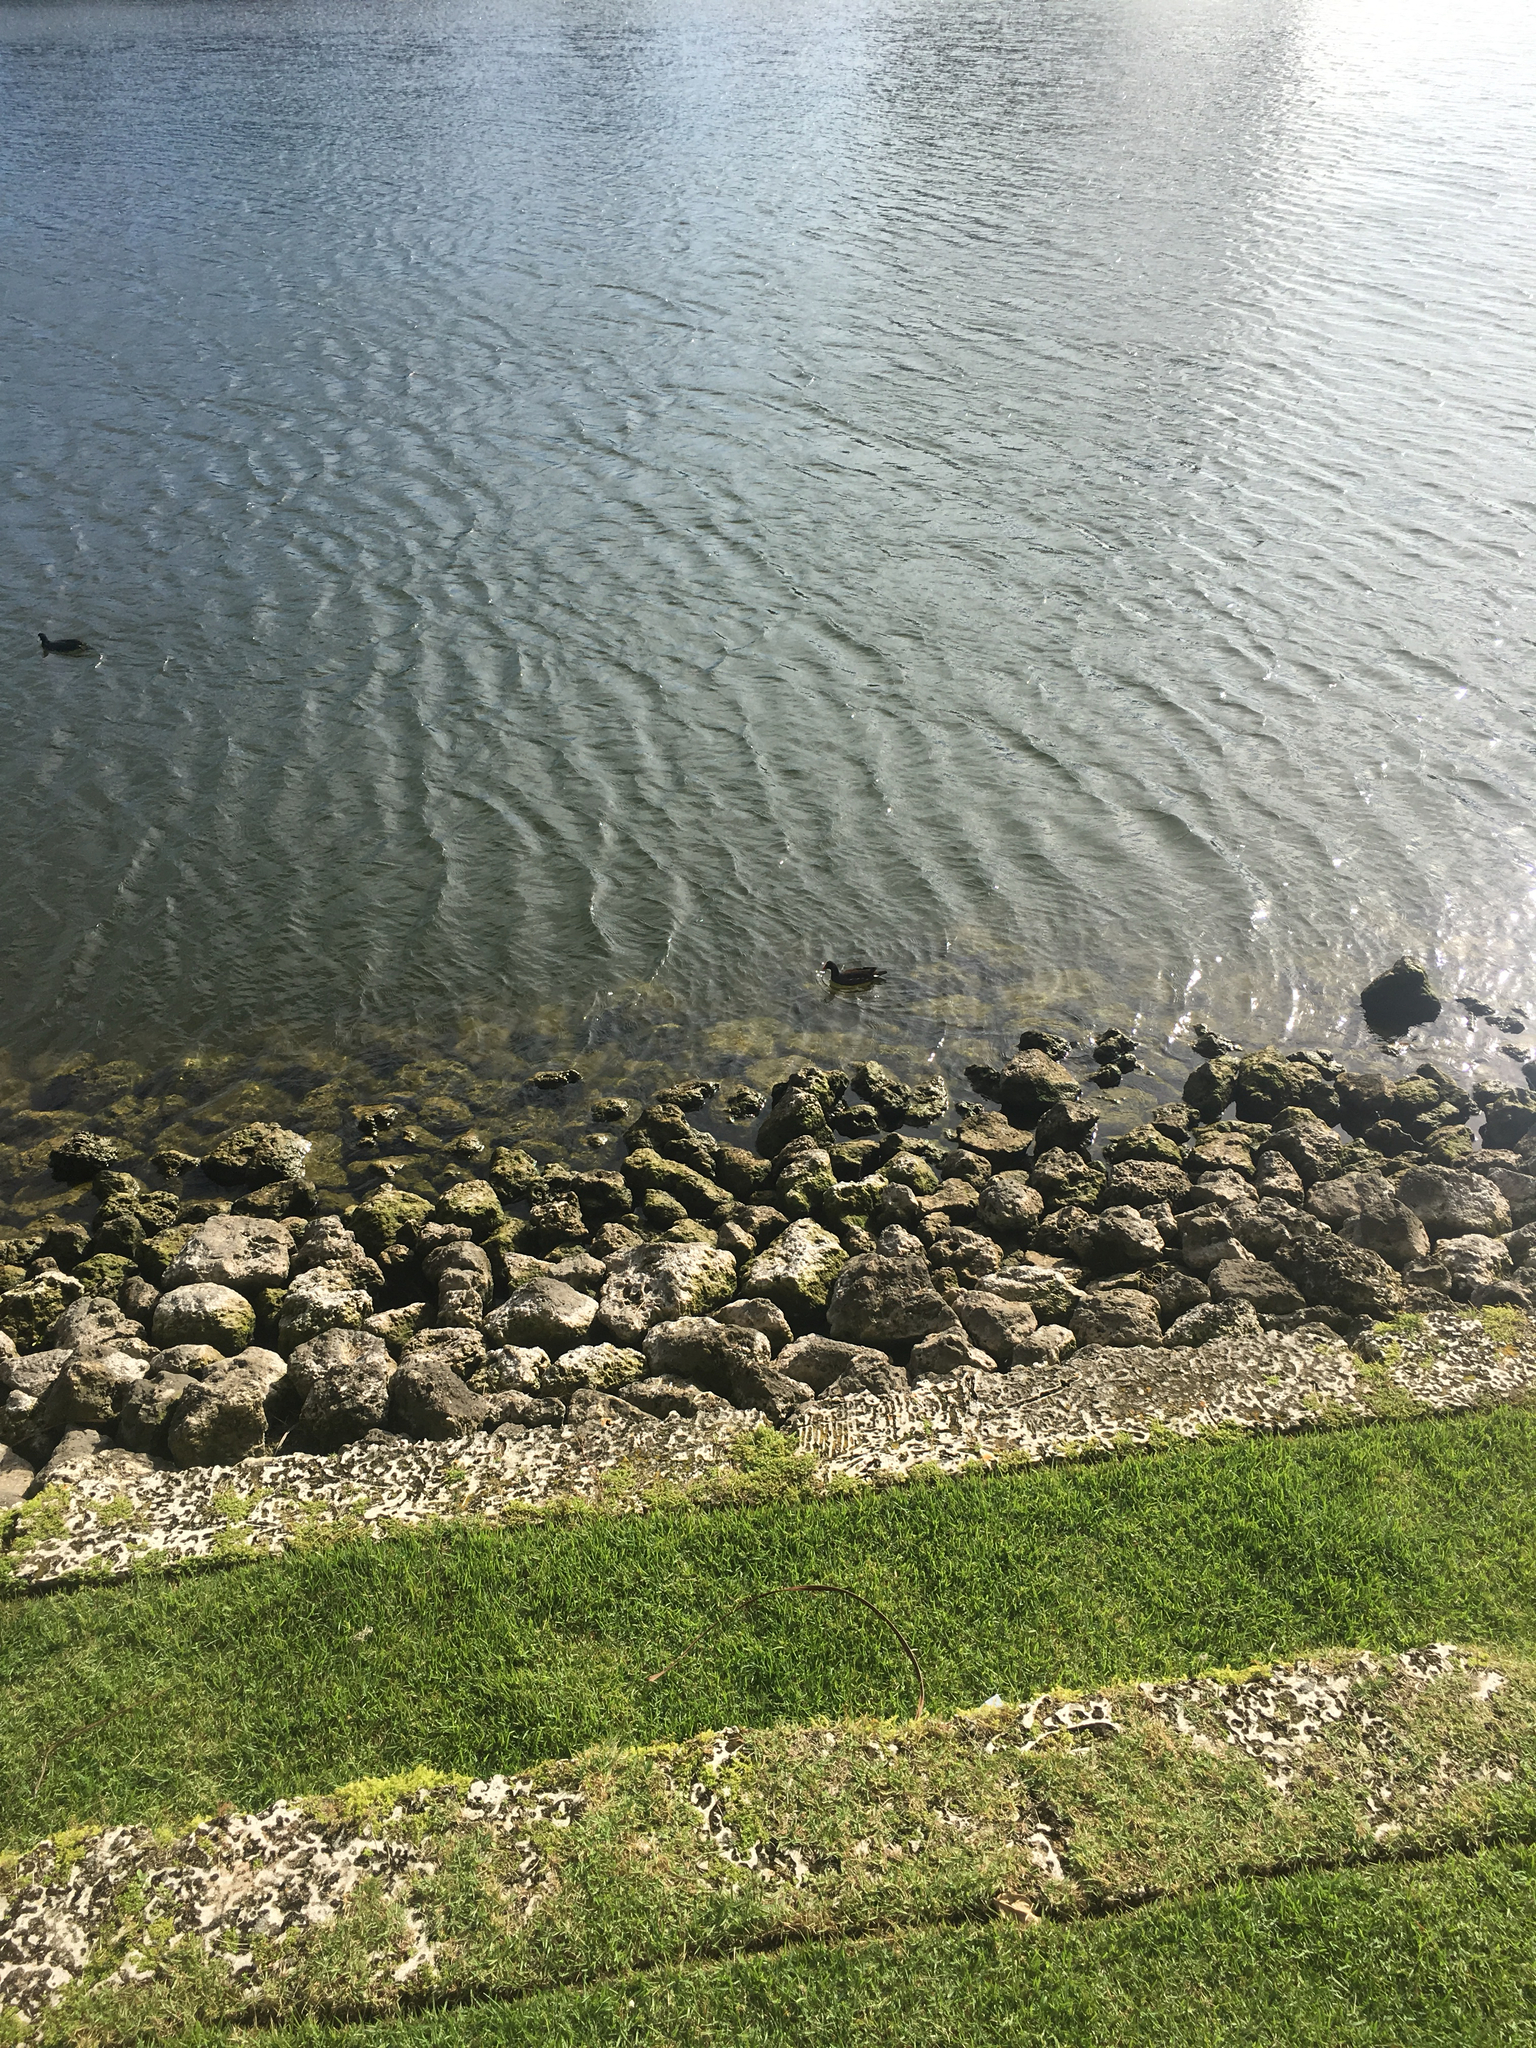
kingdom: Animalia
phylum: Chordata
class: Aves
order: Gruiformes
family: Rallidae
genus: Gallinula
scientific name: Gallinula chloropus
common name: Common moorhen
